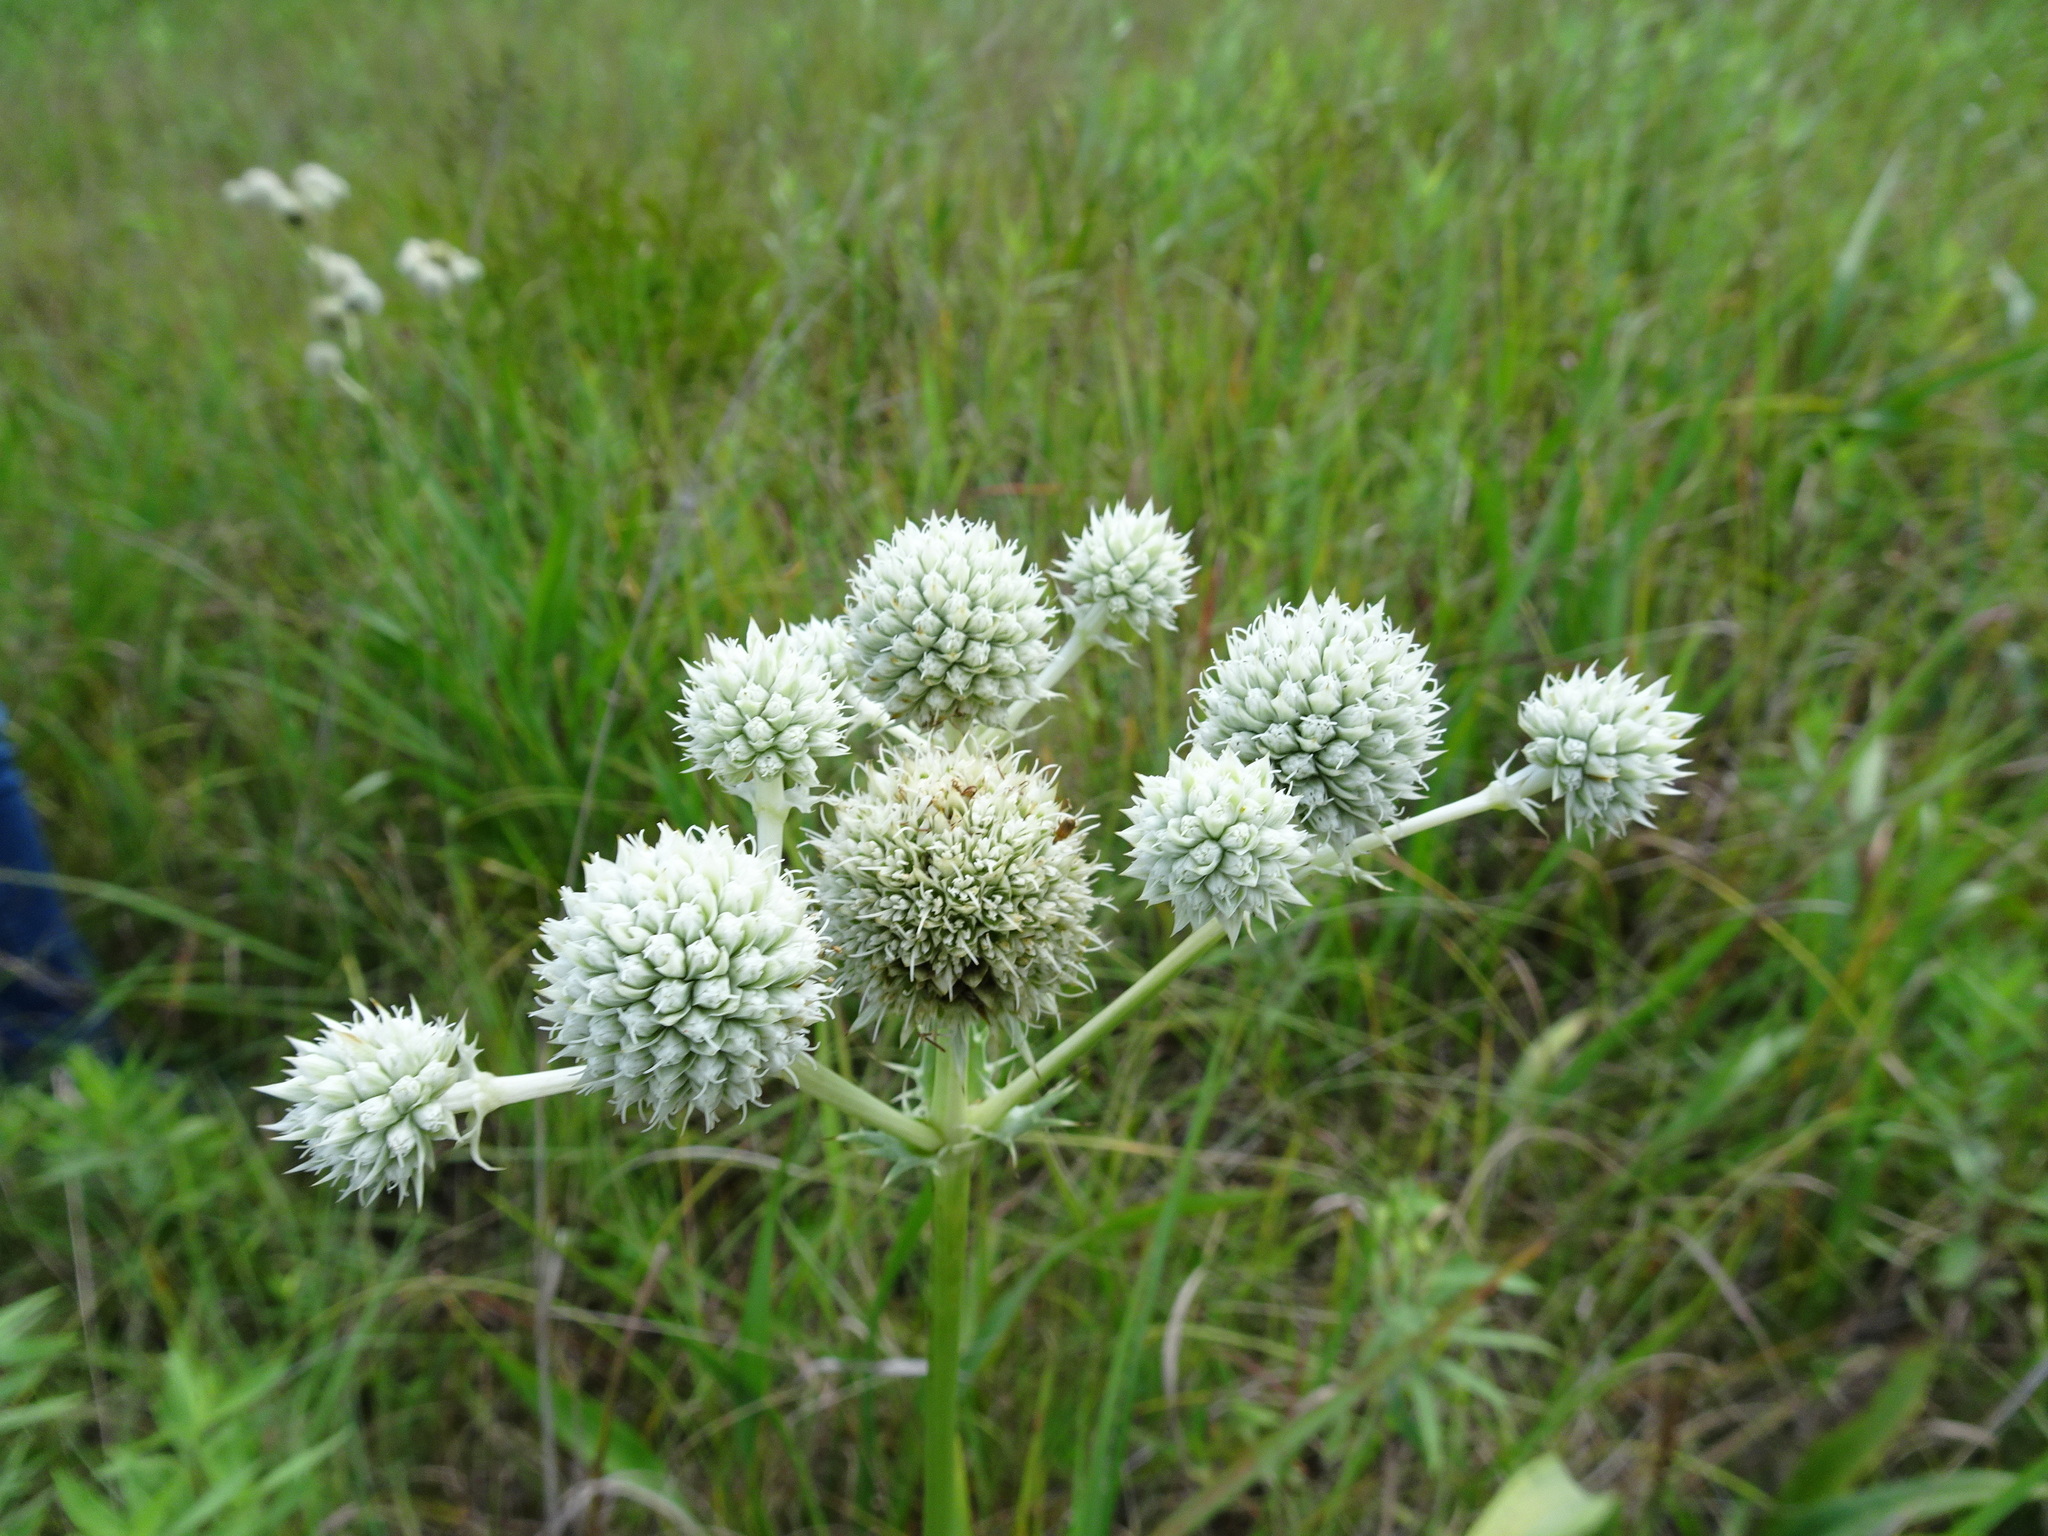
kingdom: Plantae
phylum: Tracheophyta
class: Magnoliopsida
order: Apiales
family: Apiaceae
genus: Eryngium
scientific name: Eryngium yuccifolium
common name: Button eryngo
